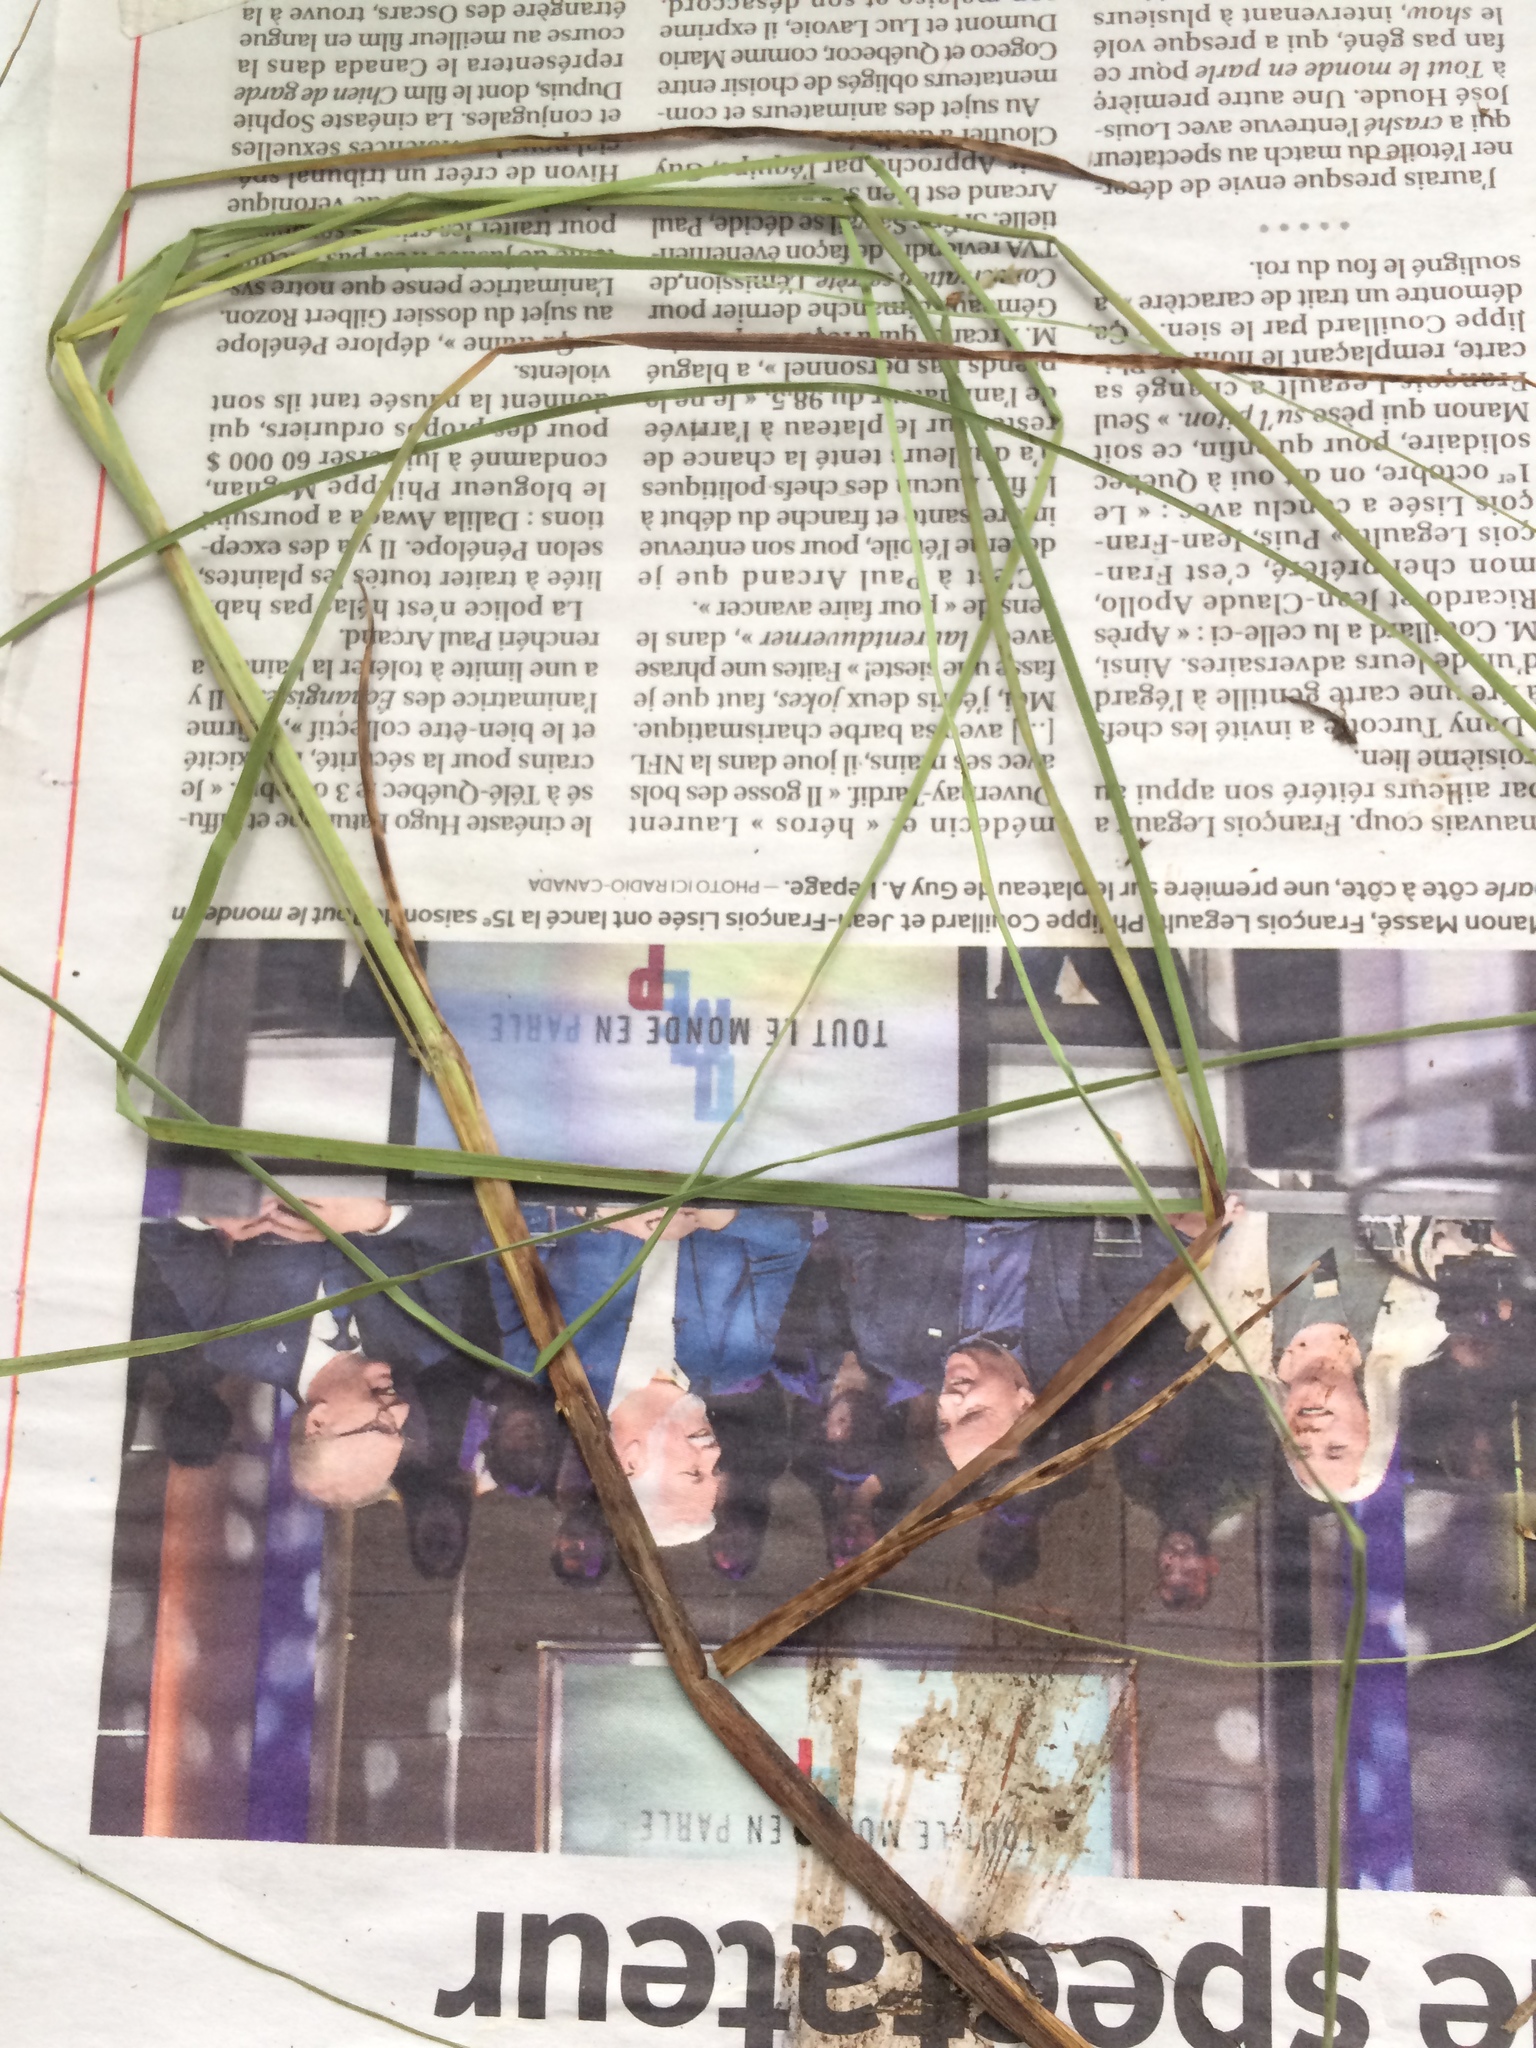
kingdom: Plantae
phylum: Tracheophyta
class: Liliopsida
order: Poales
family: Cyperaceae
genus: Carex
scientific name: Carex diandra
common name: Lesser tussock-sedge
